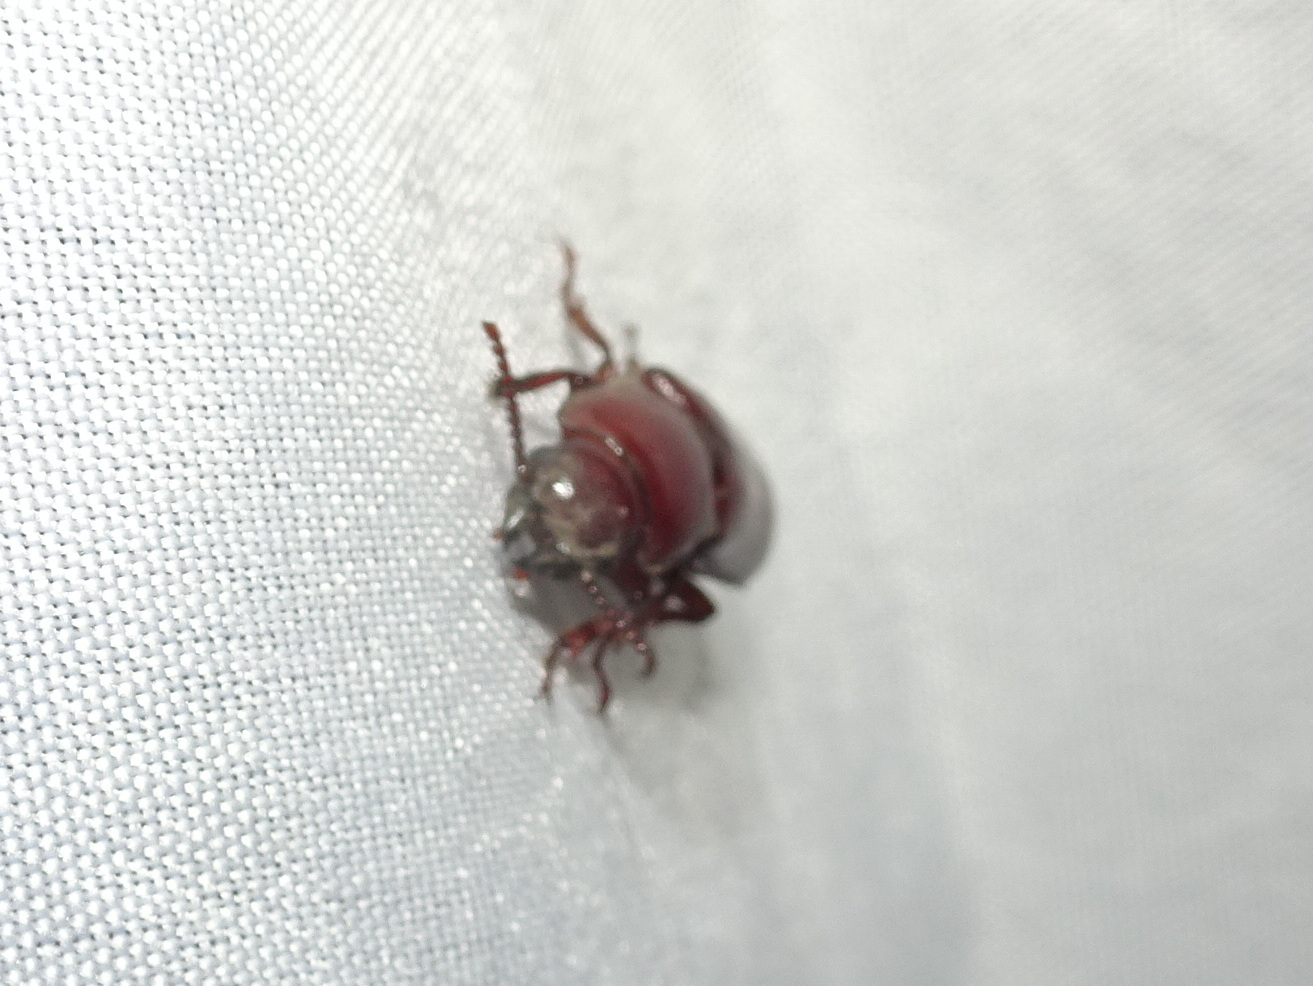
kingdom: Animalia
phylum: Arthropoda
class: Insecta
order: Coleoptera
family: Cerambycidae
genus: Neandra
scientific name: Neandra brunnea
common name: Pole borer
